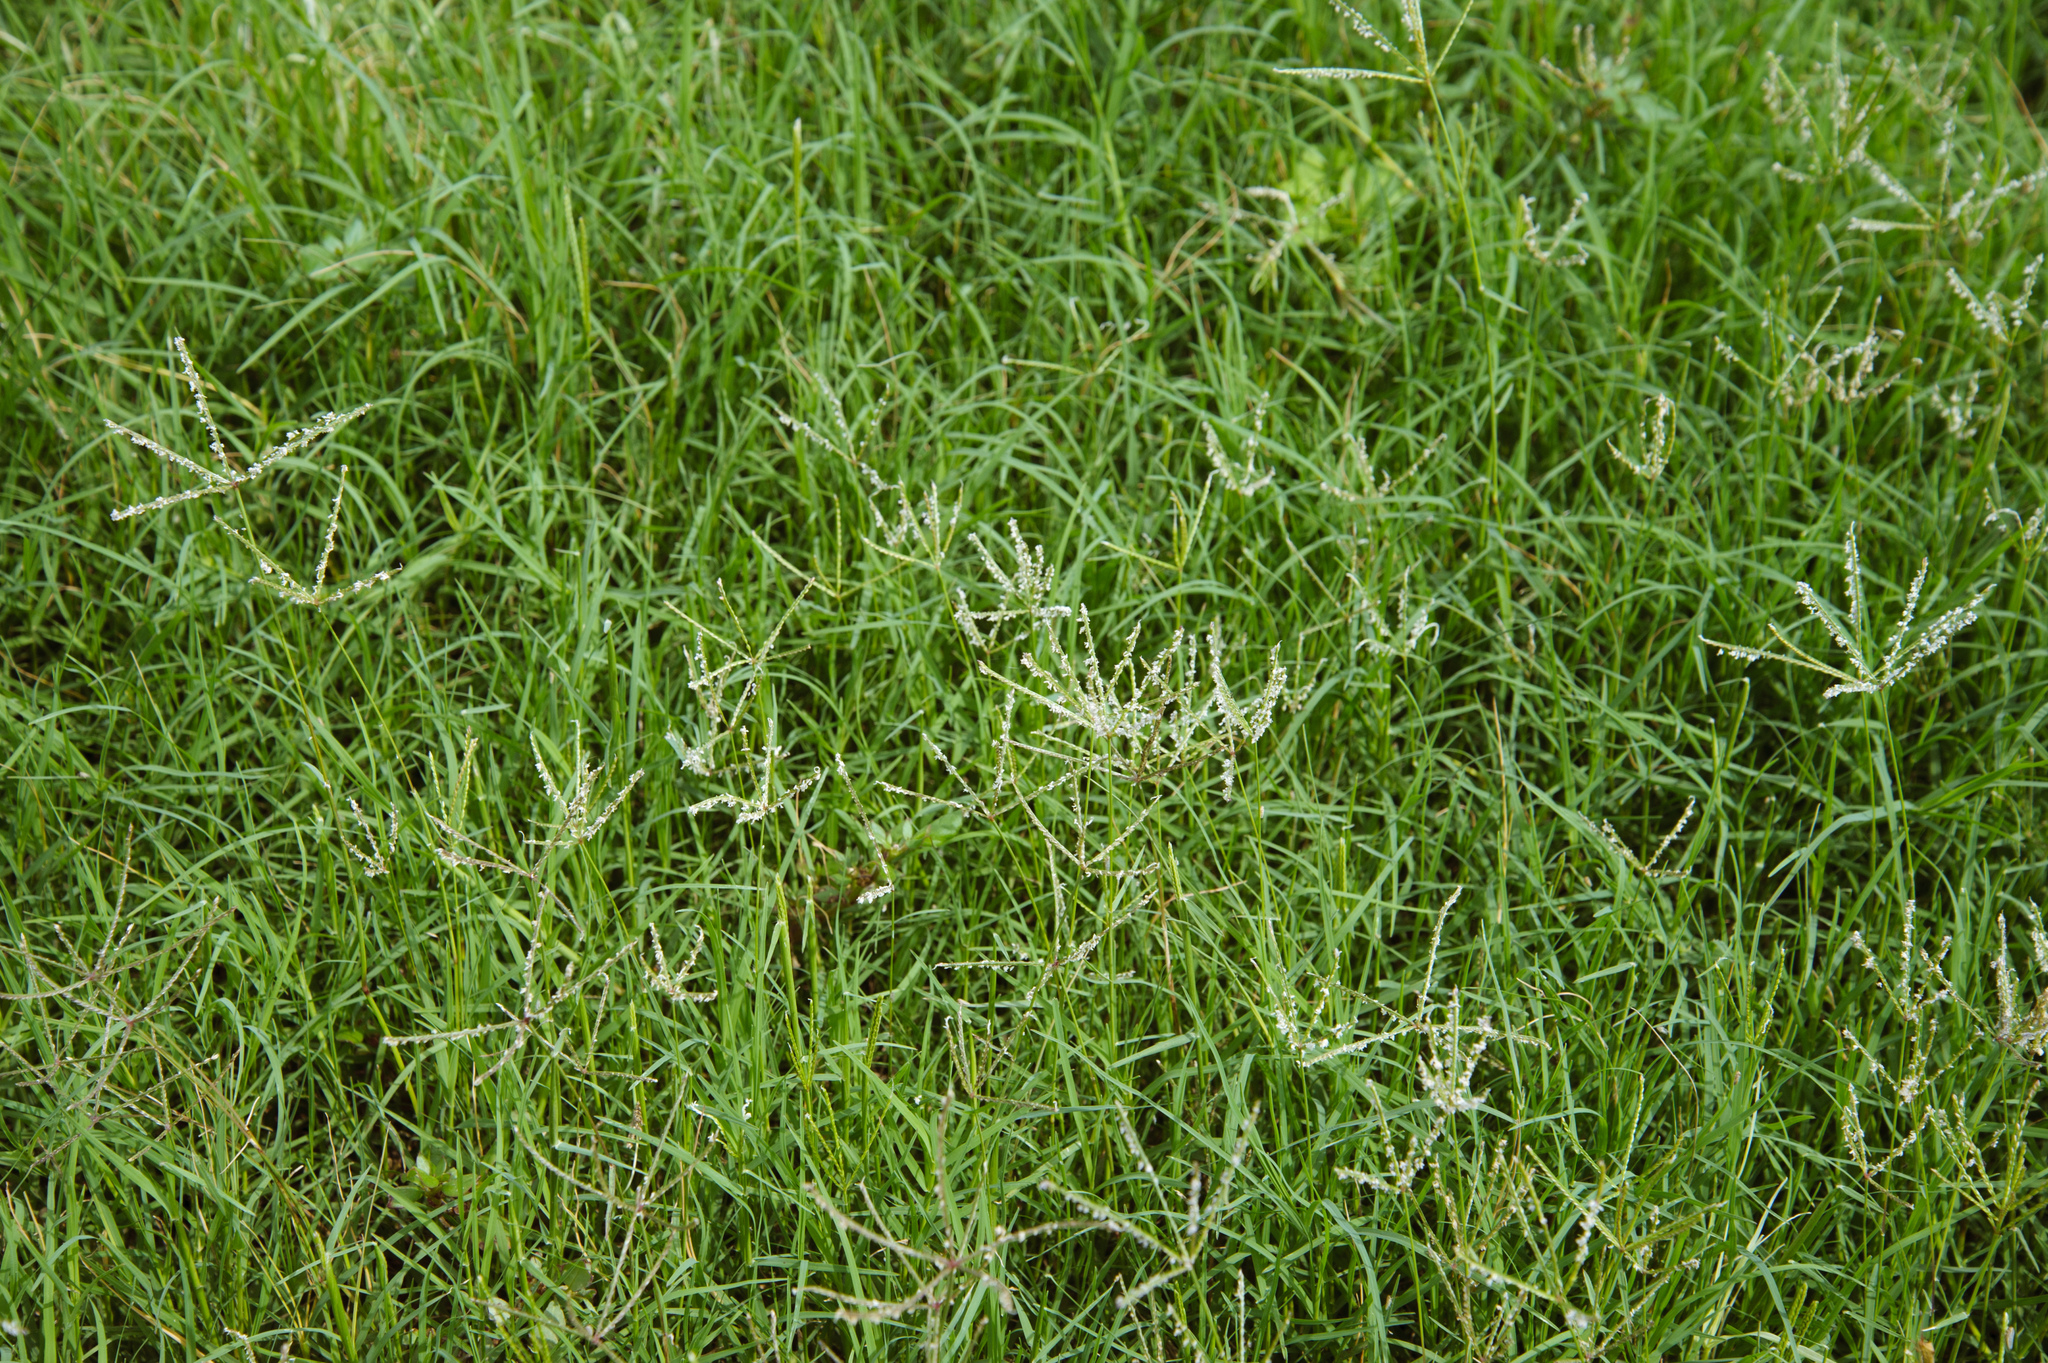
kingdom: Plantae
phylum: Tracheophyta
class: Liliopsida
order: Poales
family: Poaceae
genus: Cynodon
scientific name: Cynodon dactylon
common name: Bermuda grass
